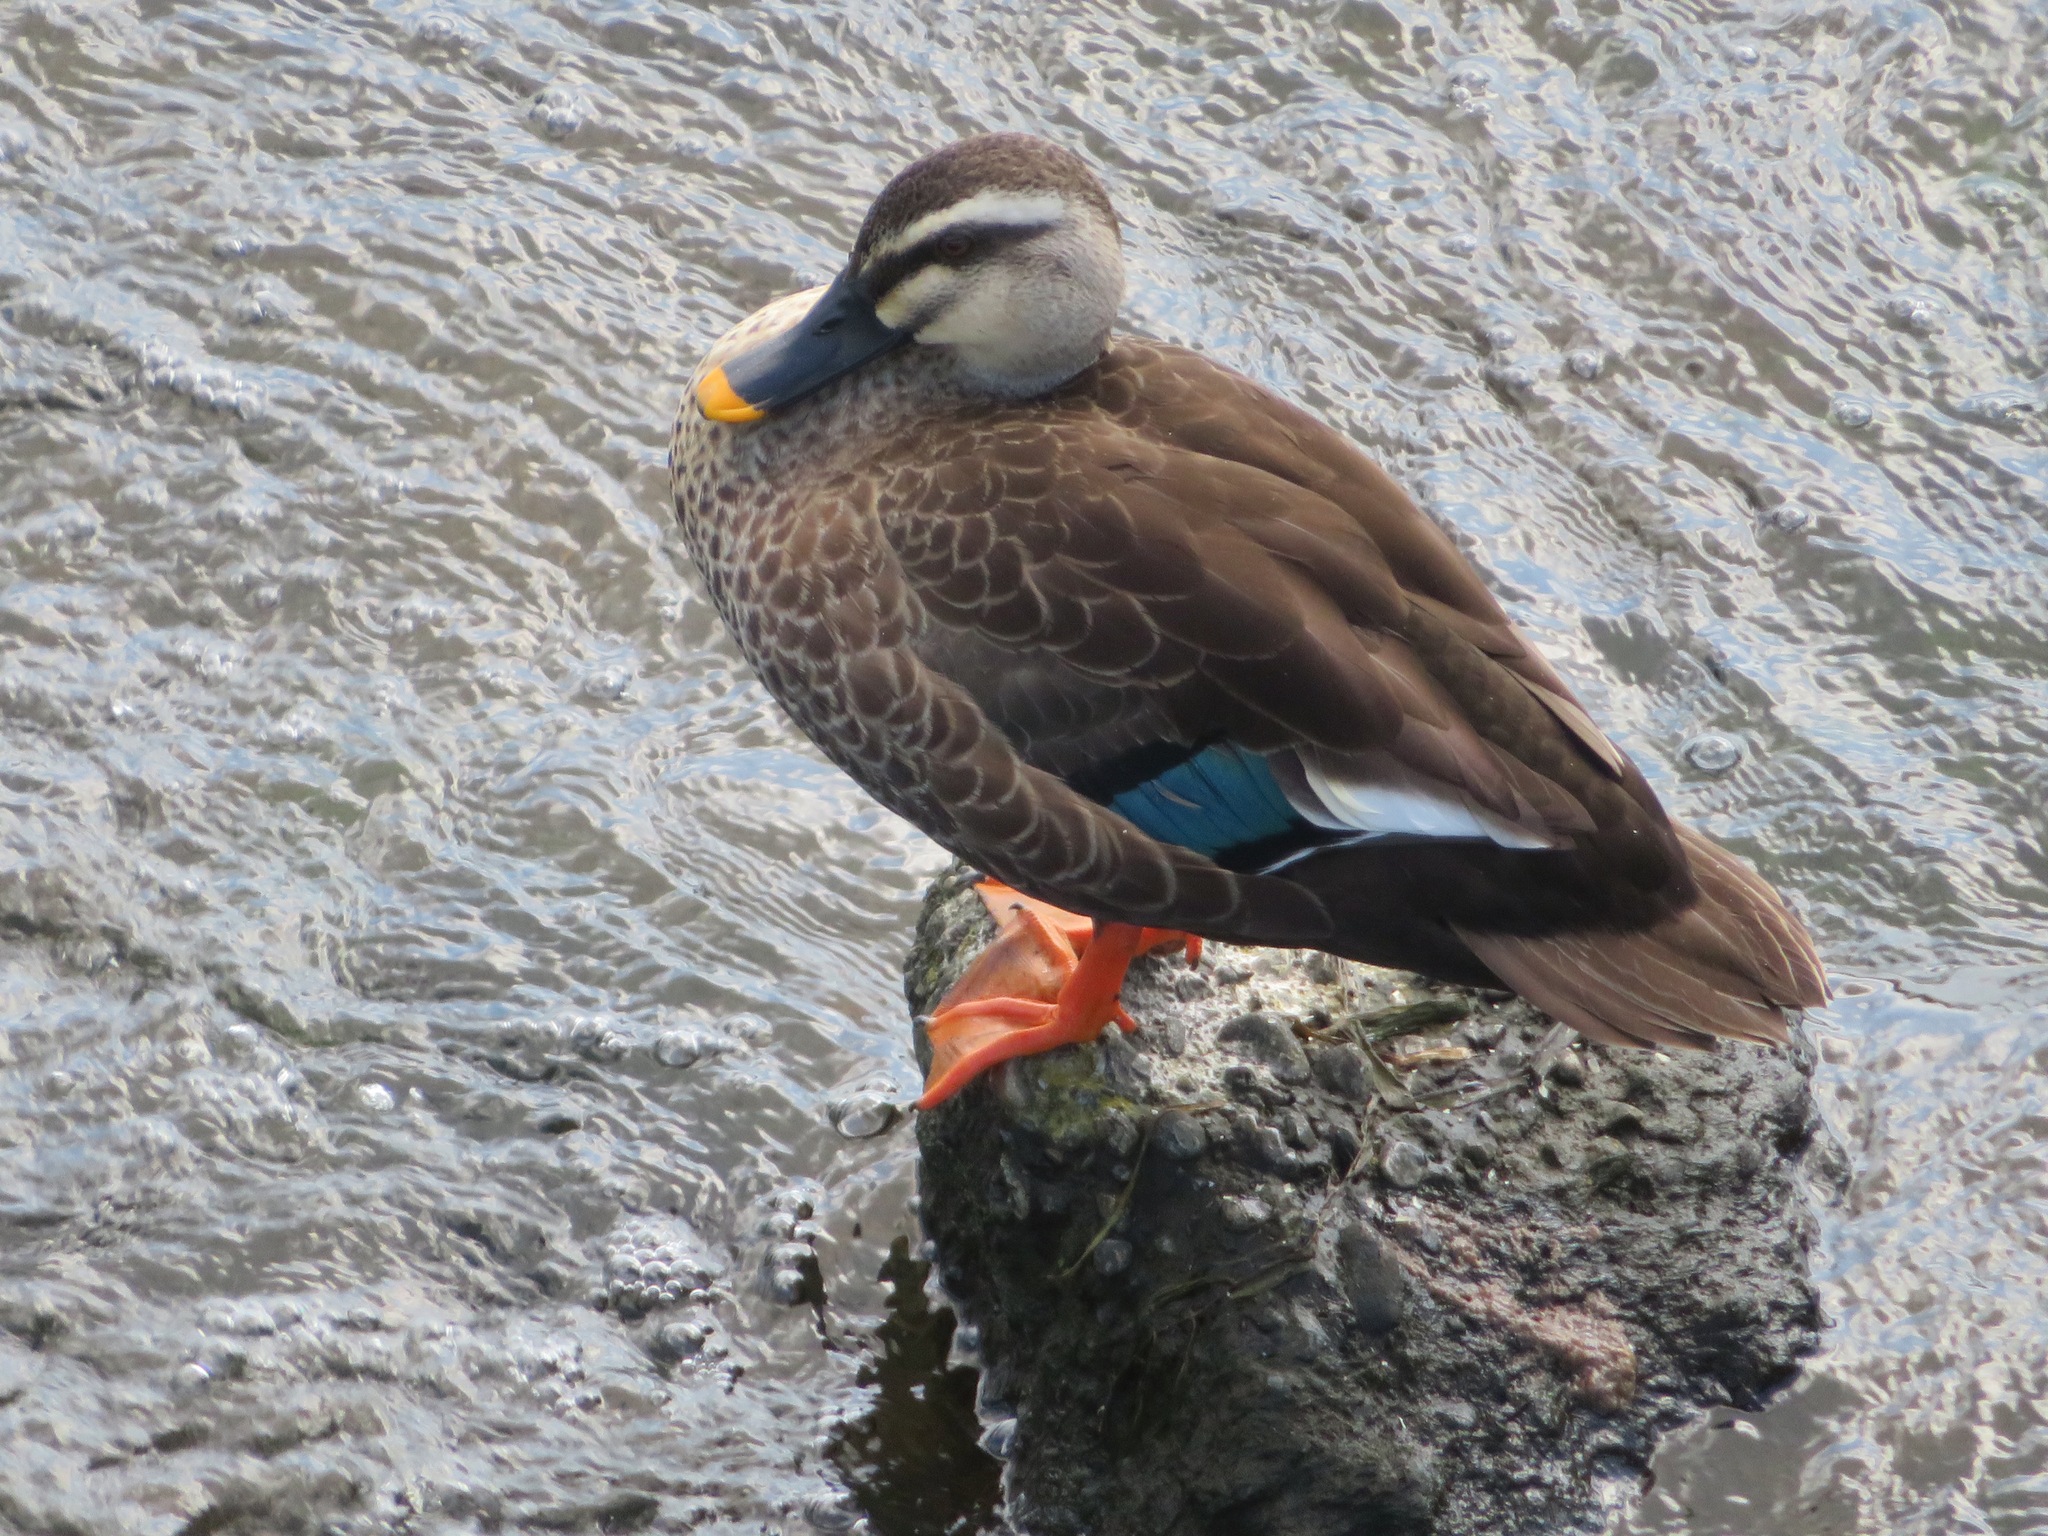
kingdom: Animalia
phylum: Chordata
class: Aves
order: Anseriformes
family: Anatidae
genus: Anas
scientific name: Anas zonorhyncha
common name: Eastern spot-billed duck
